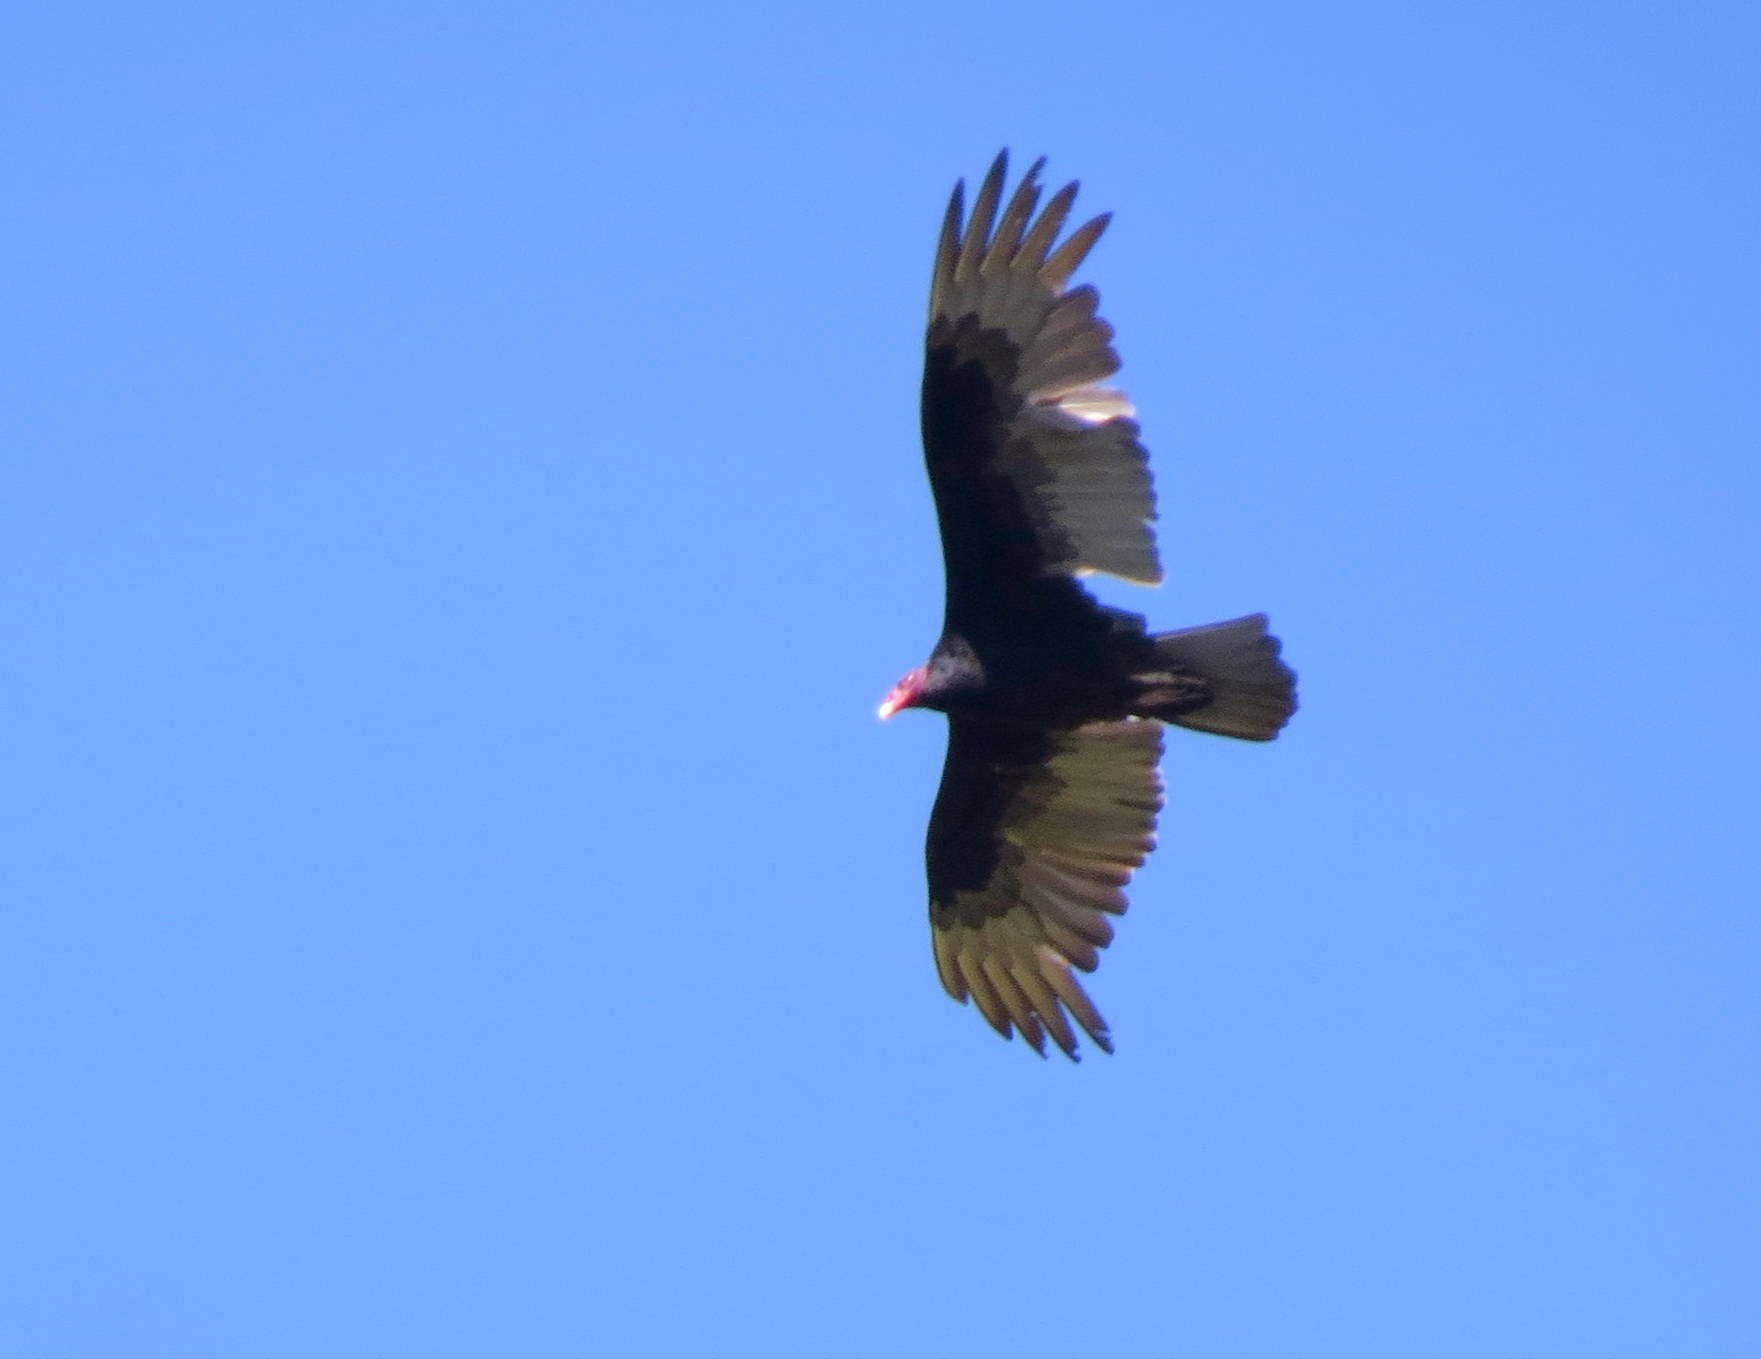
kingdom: Animalia
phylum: Chordata
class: Aves
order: Accipitriformes
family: Cathartidae
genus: Cathartes
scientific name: Cathartes aura
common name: Turkey vulture
